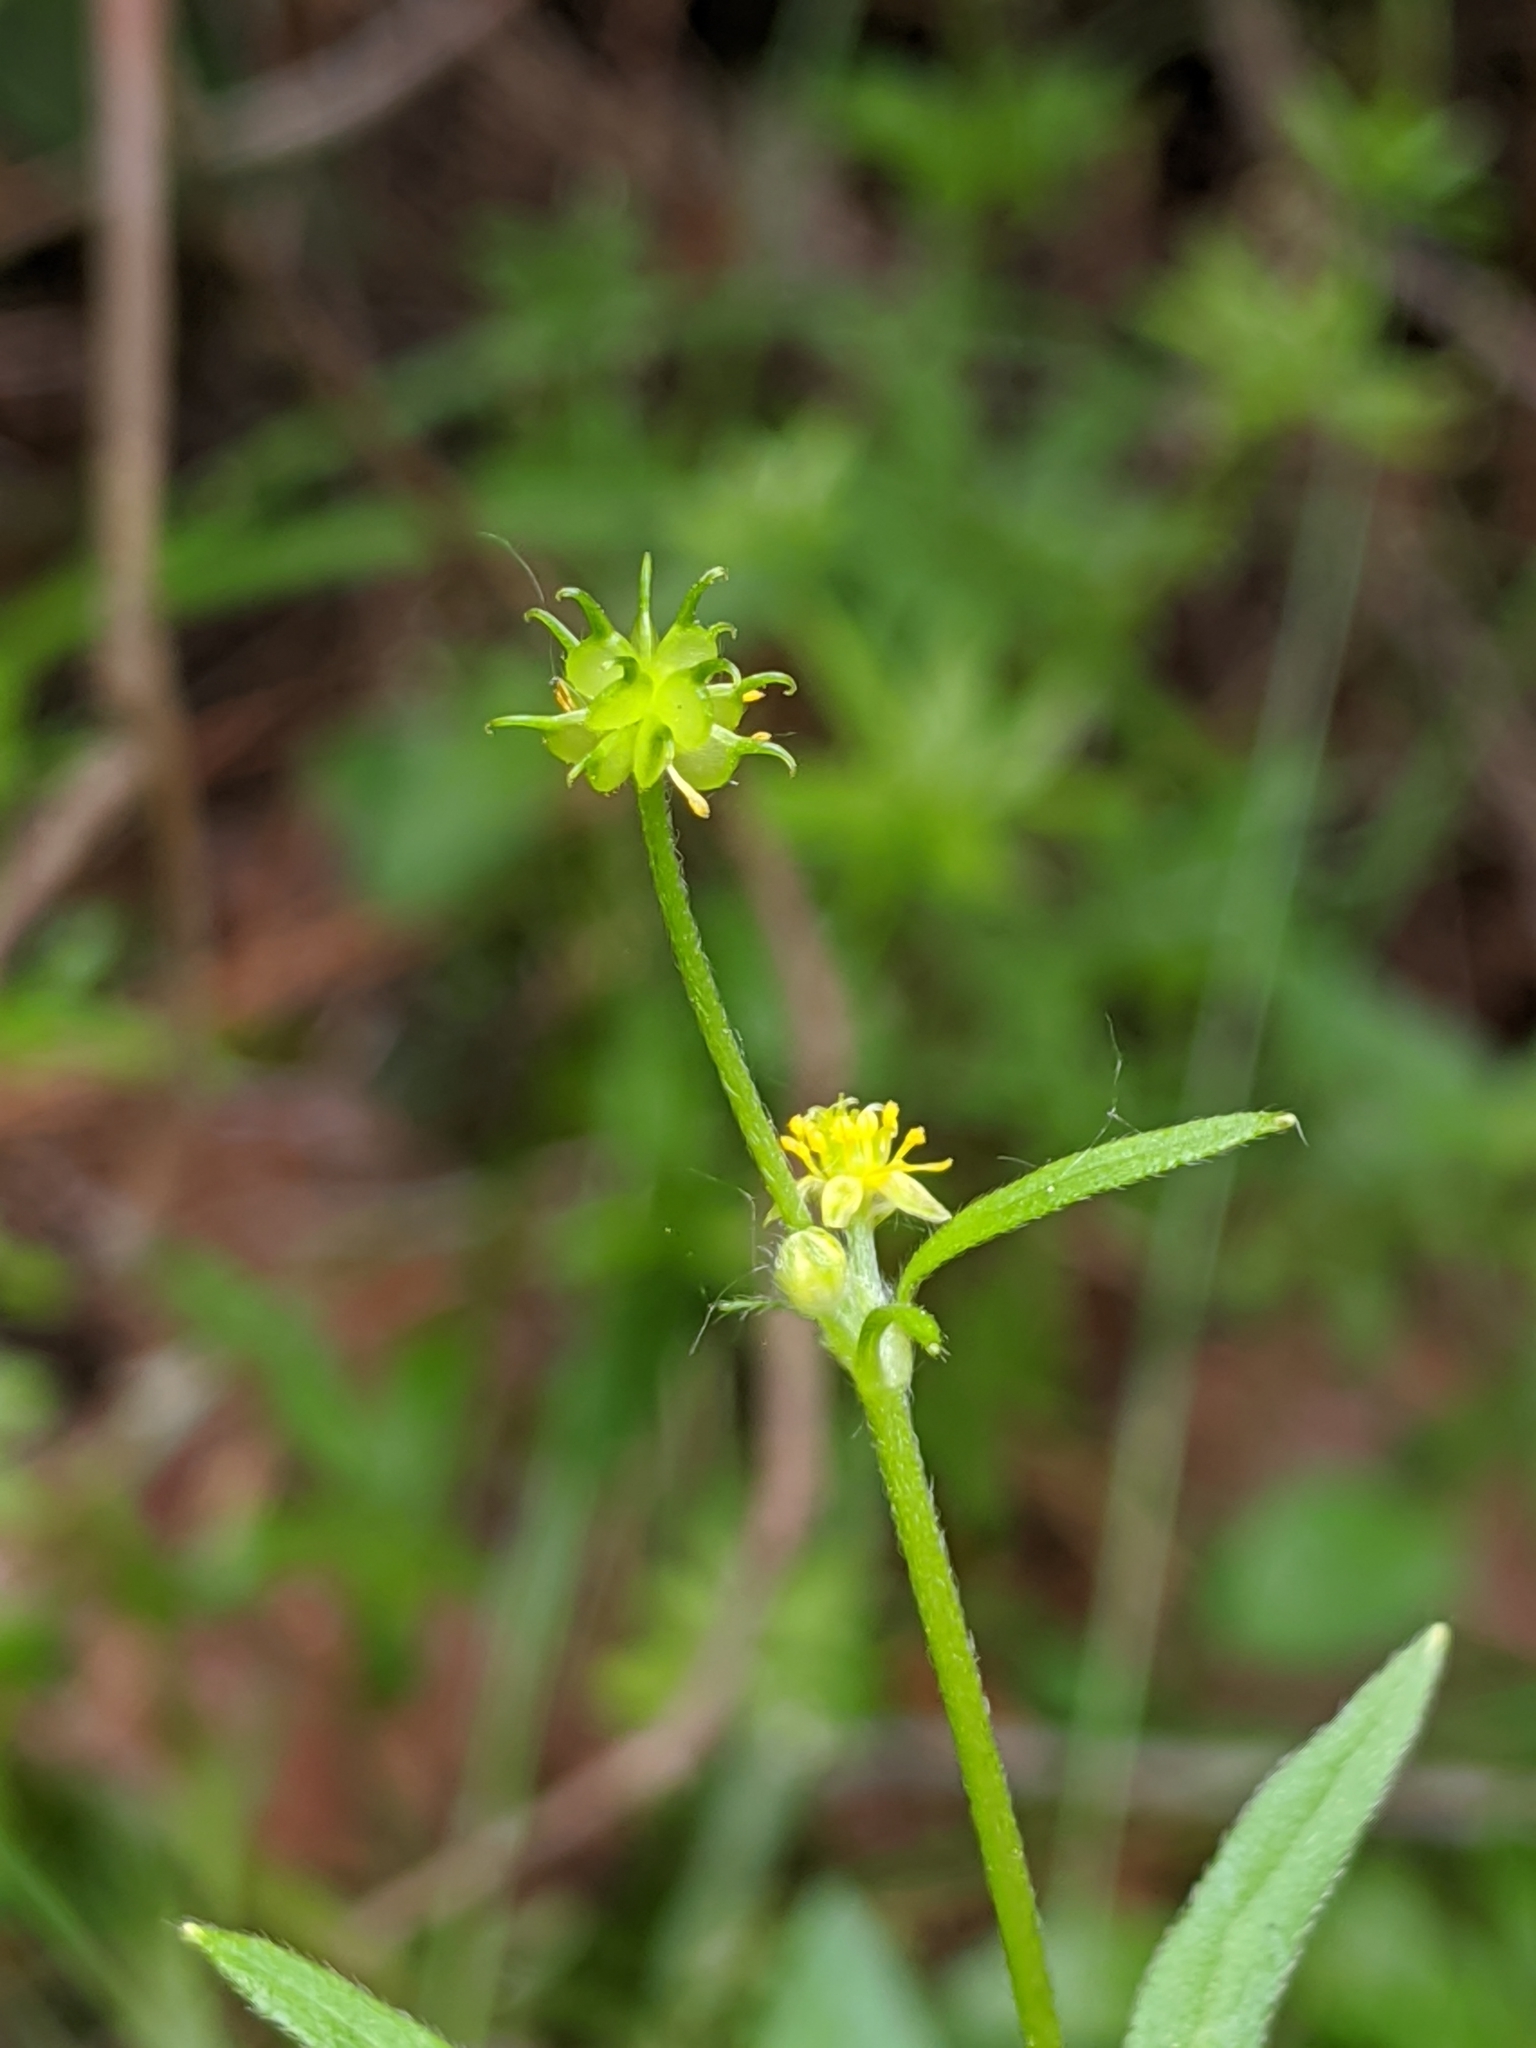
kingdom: Plantae
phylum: Tracheophyta
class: Magnoliopsida
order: Ranunculales
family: Ranunculaceae
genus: Ranunculus
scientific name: Ranunculus uncinatus
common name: Little buttercup
